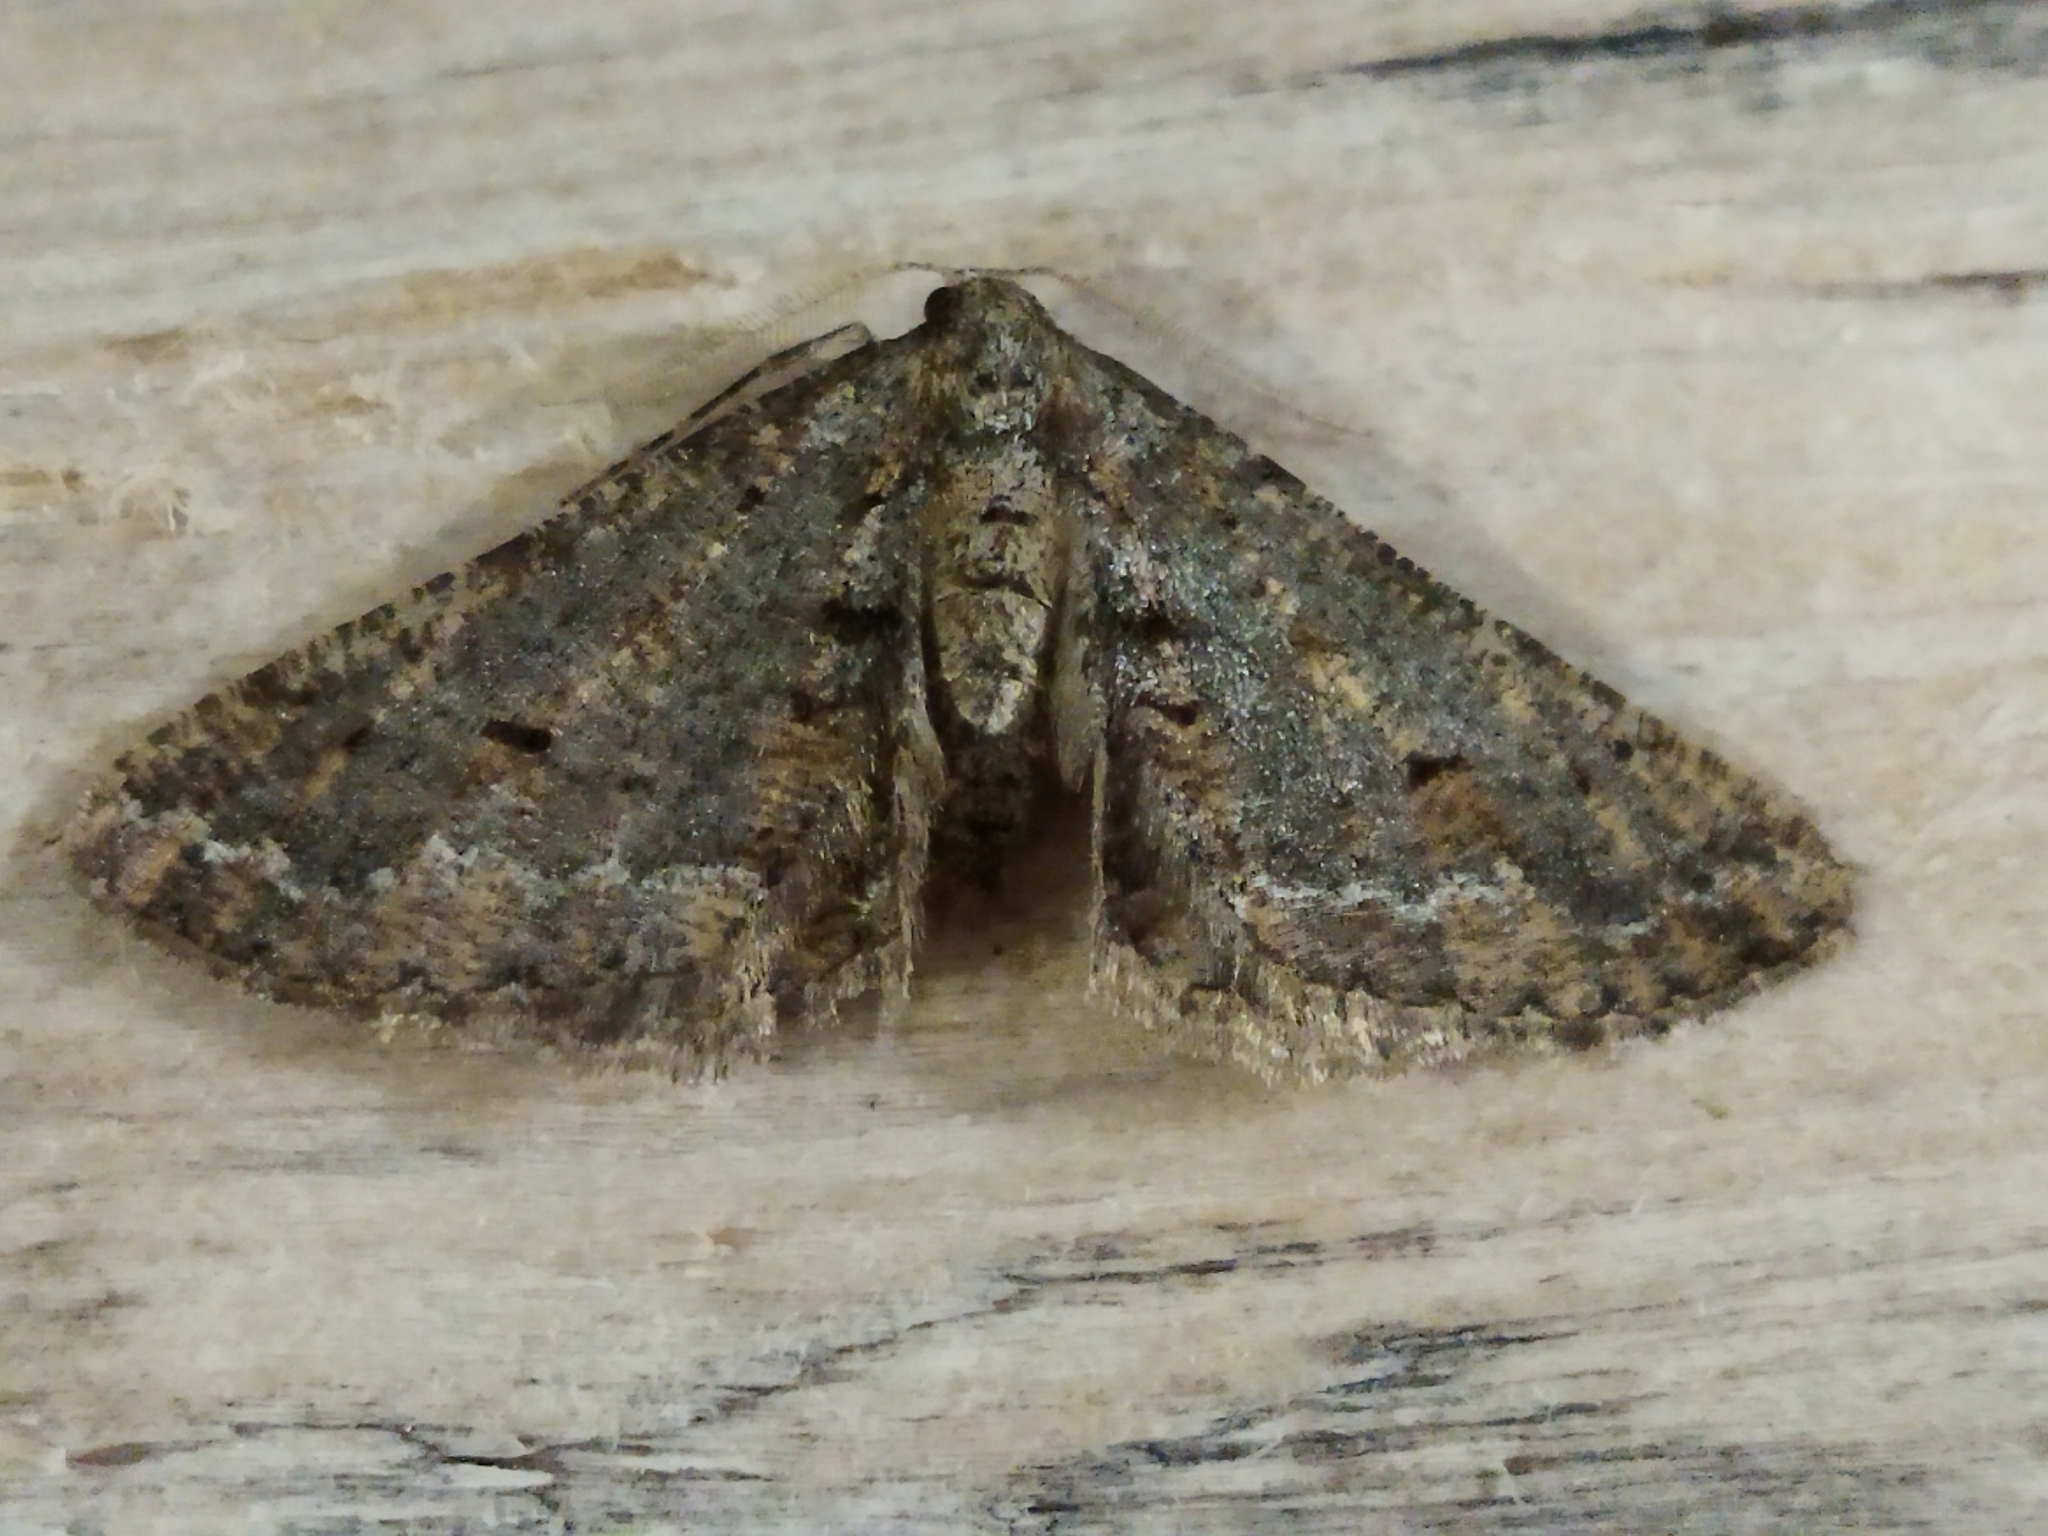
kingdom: Animalia
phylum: Arthropoda
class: Insecta
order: Lepidoptera
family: Geometridae
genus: Agriopis
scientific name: Agriopis bajaria
